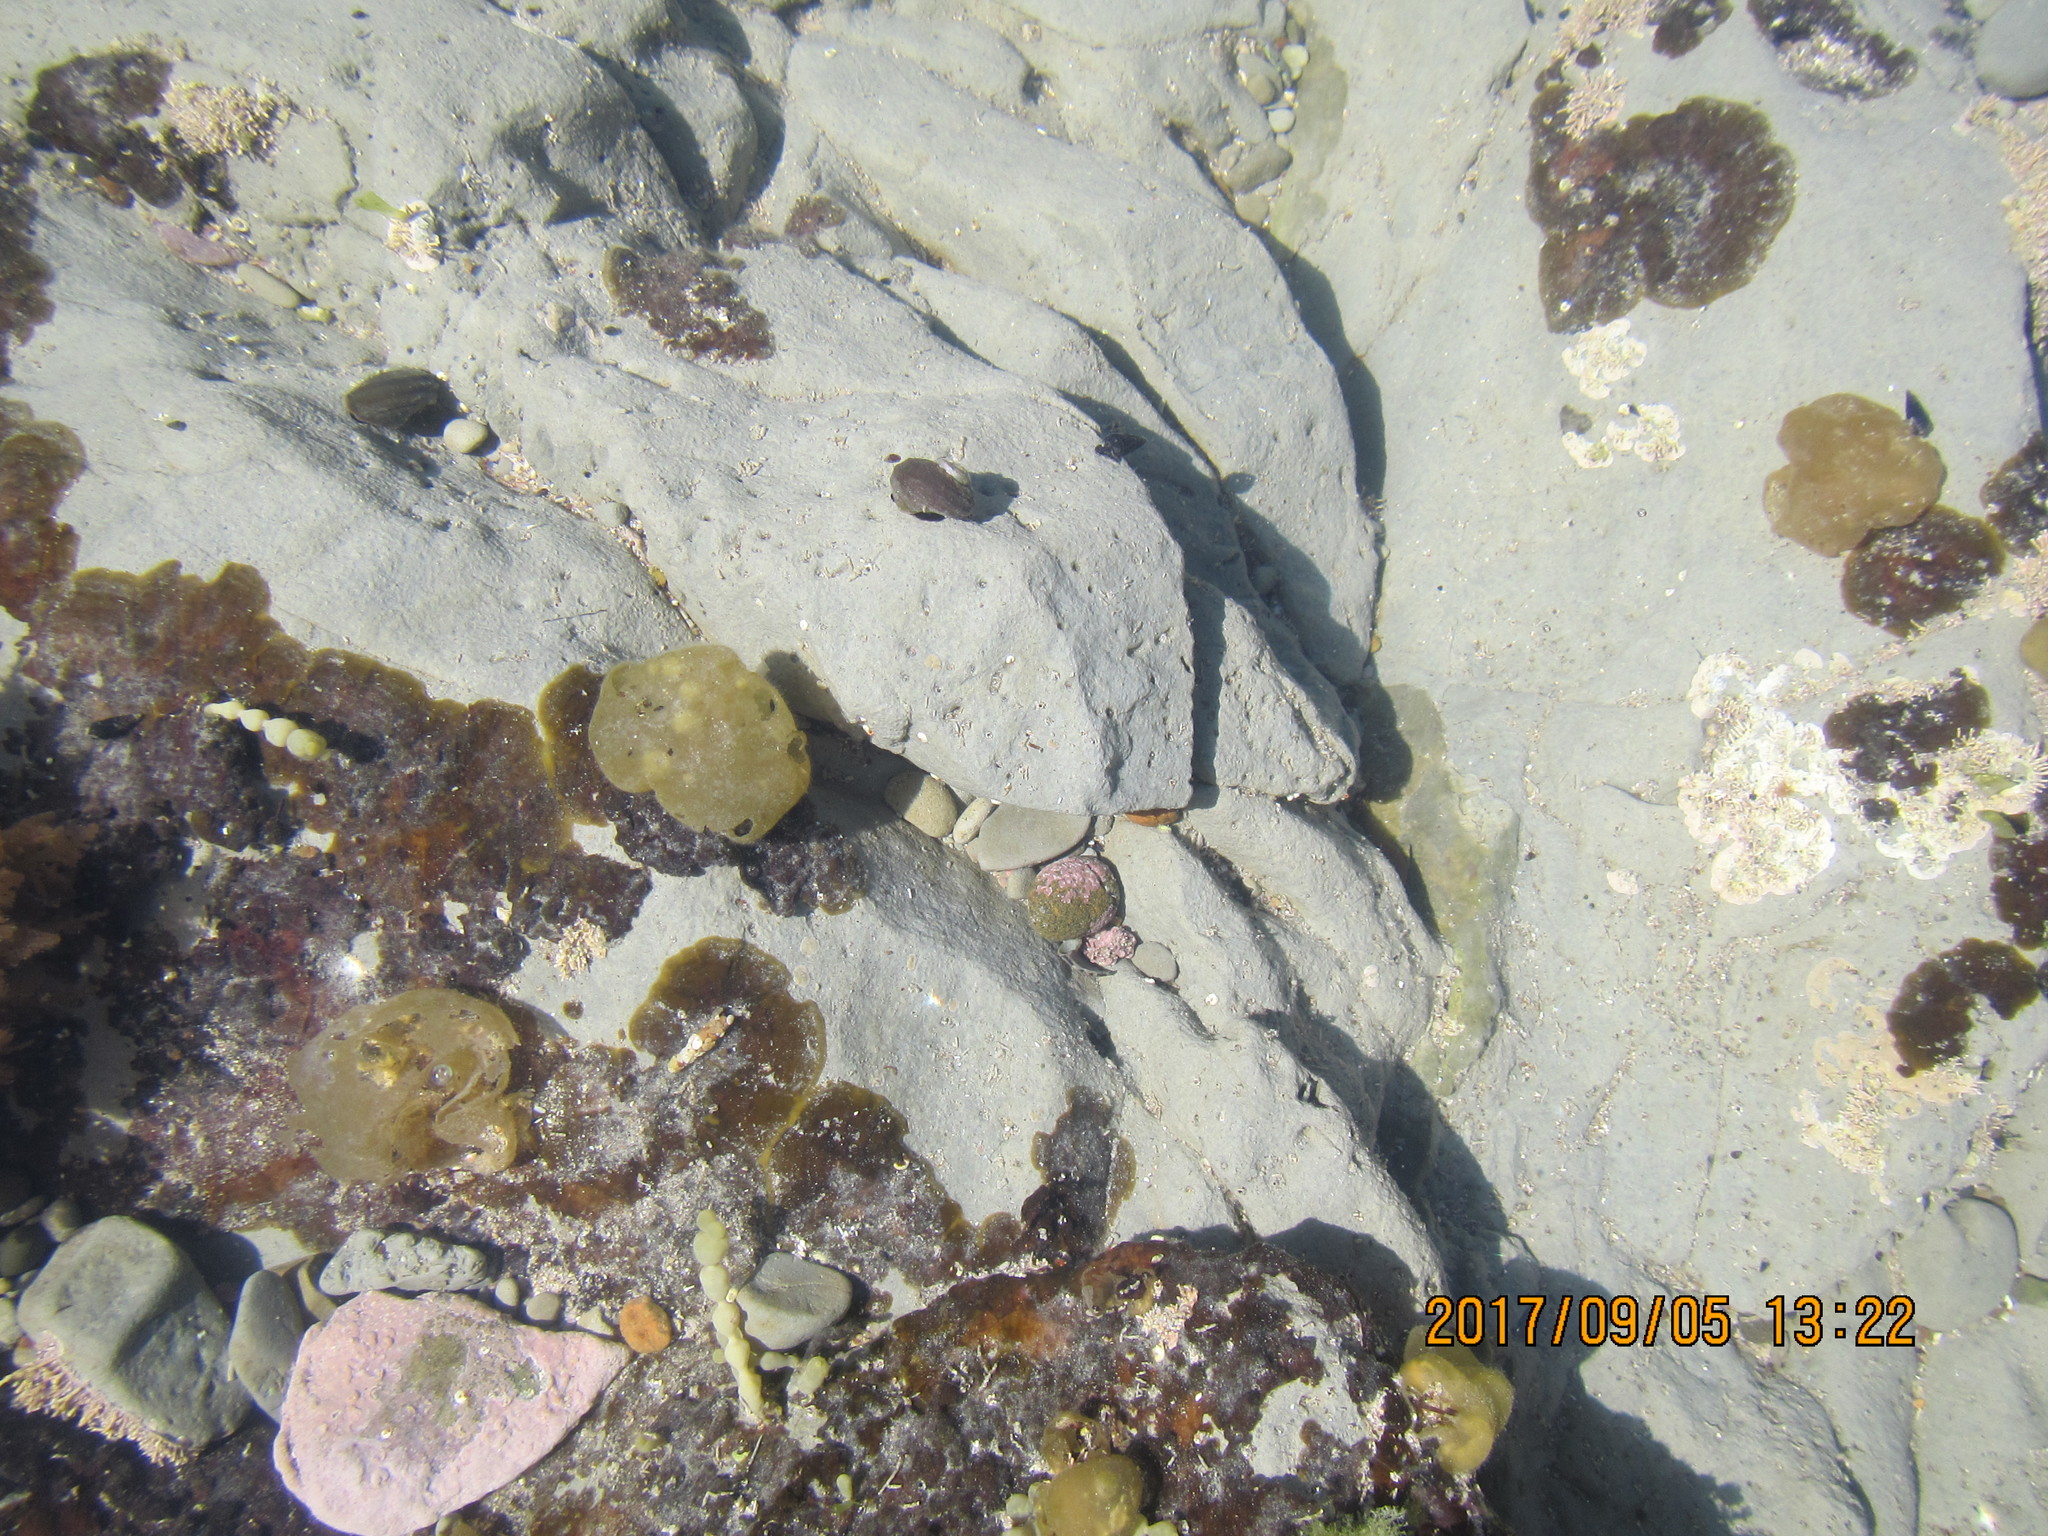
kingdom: Animalia
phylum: Mollusca
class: Gastropoda
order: Trochida
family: Trochidae
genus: Diloma
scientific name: Diloma aethiops
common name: Scorched monodont
